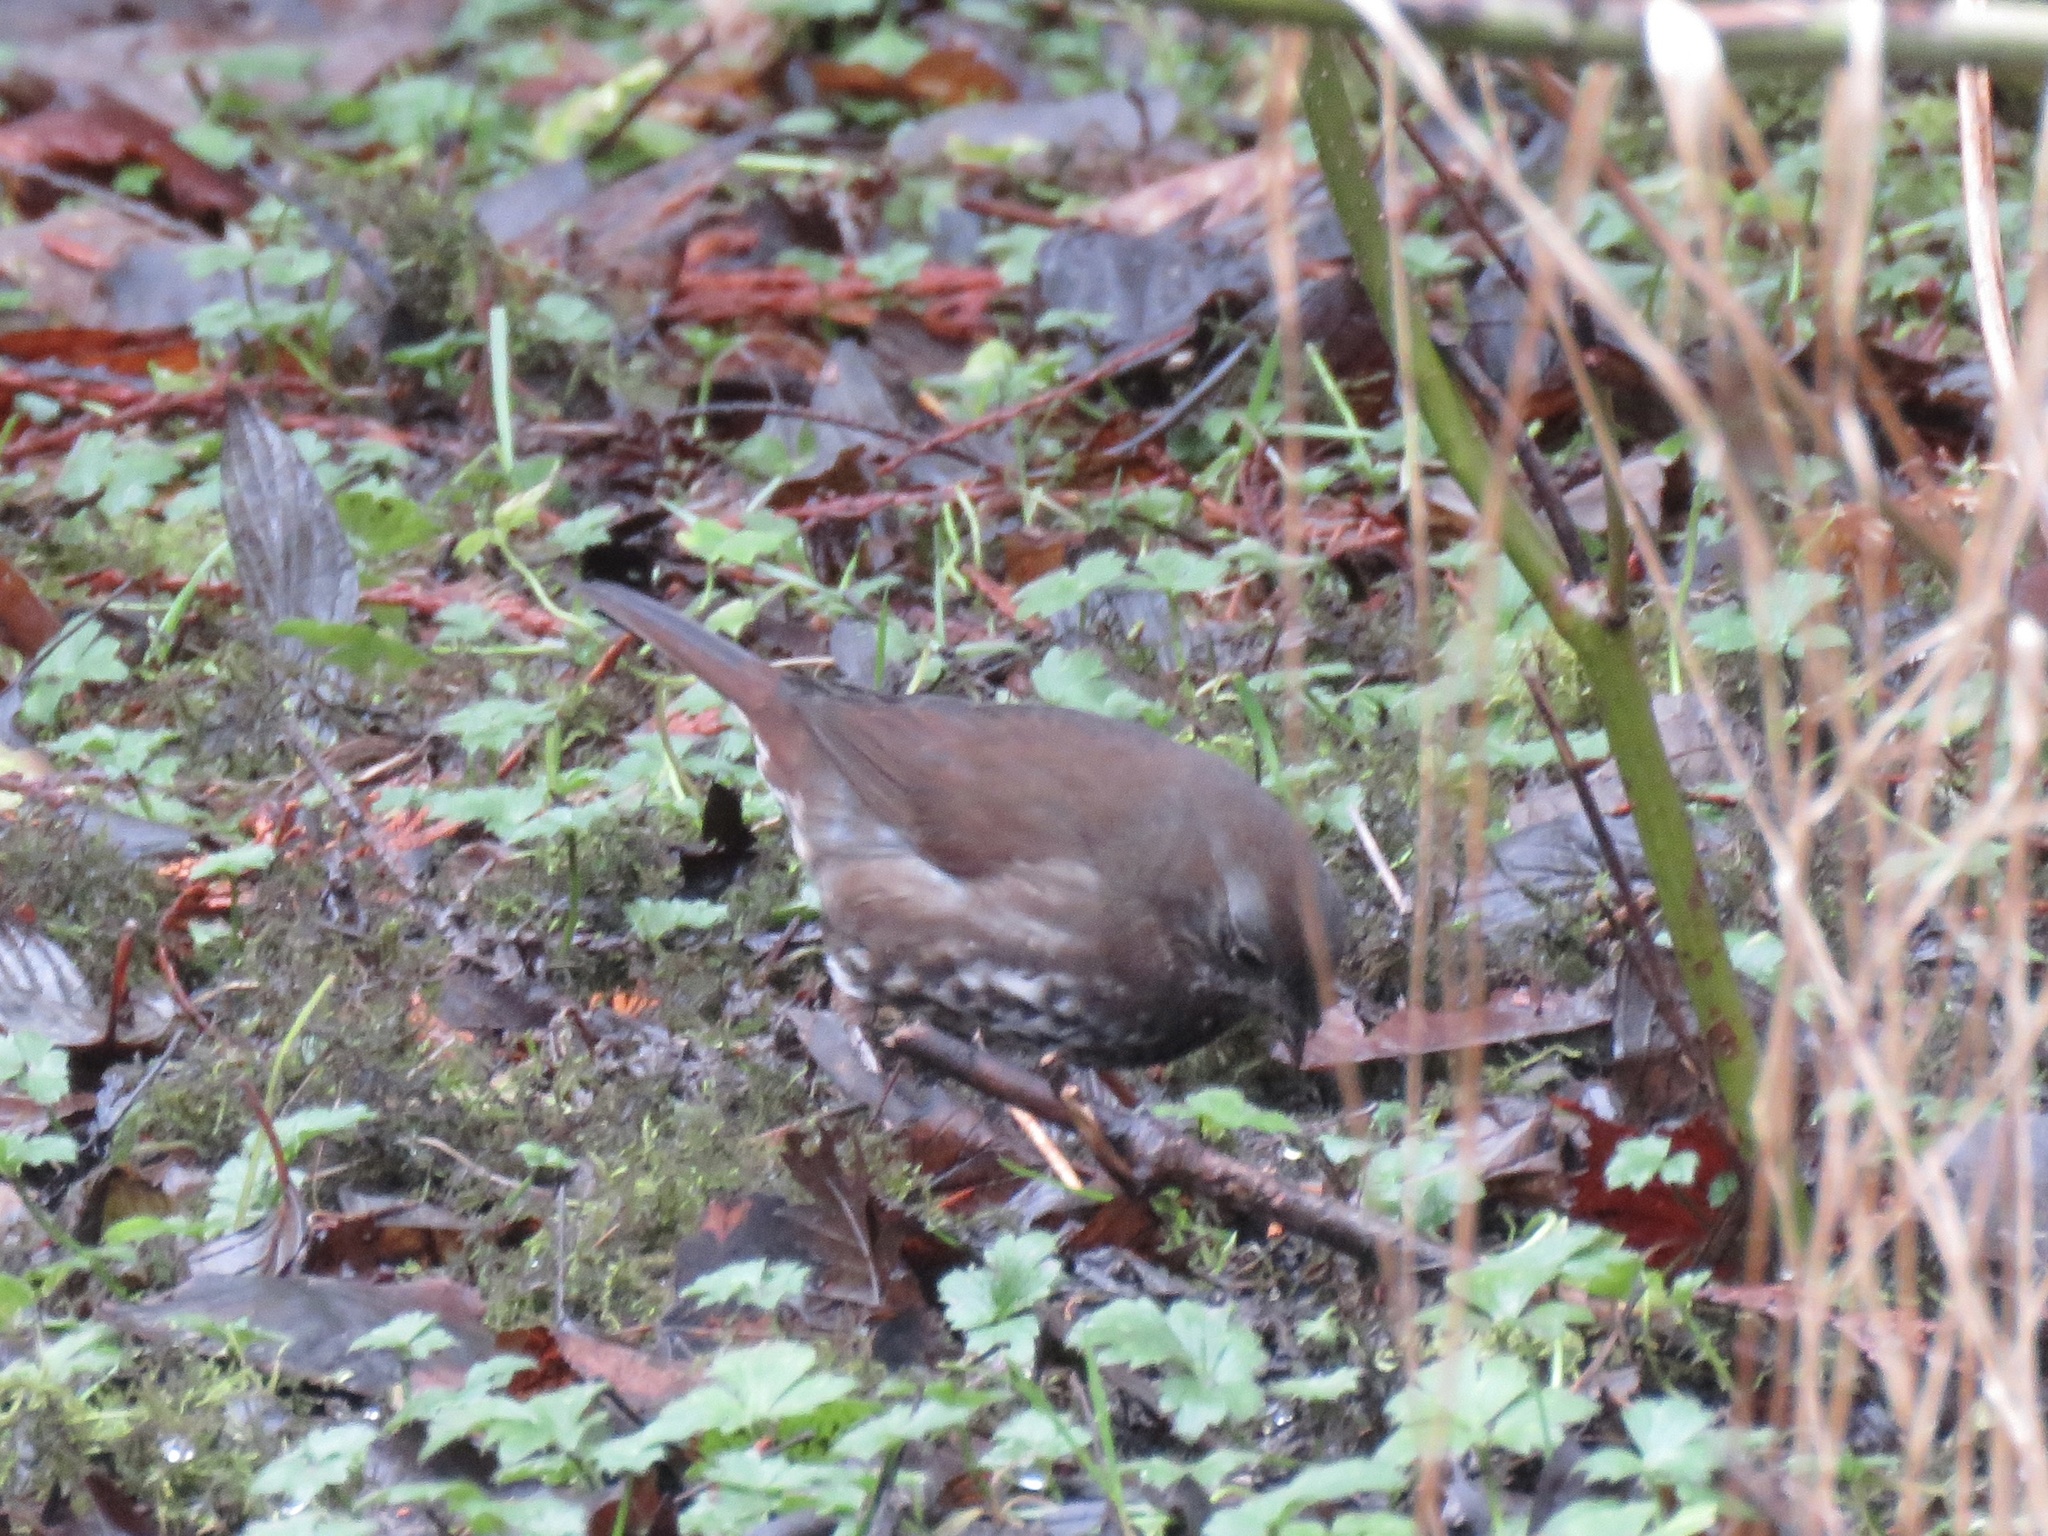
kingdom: Animalia
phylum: Chordata
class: Aves
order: Passeriformes
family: Passerellidae
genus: Passerella
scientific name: Passerella iliaca
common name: Fox sparrow
